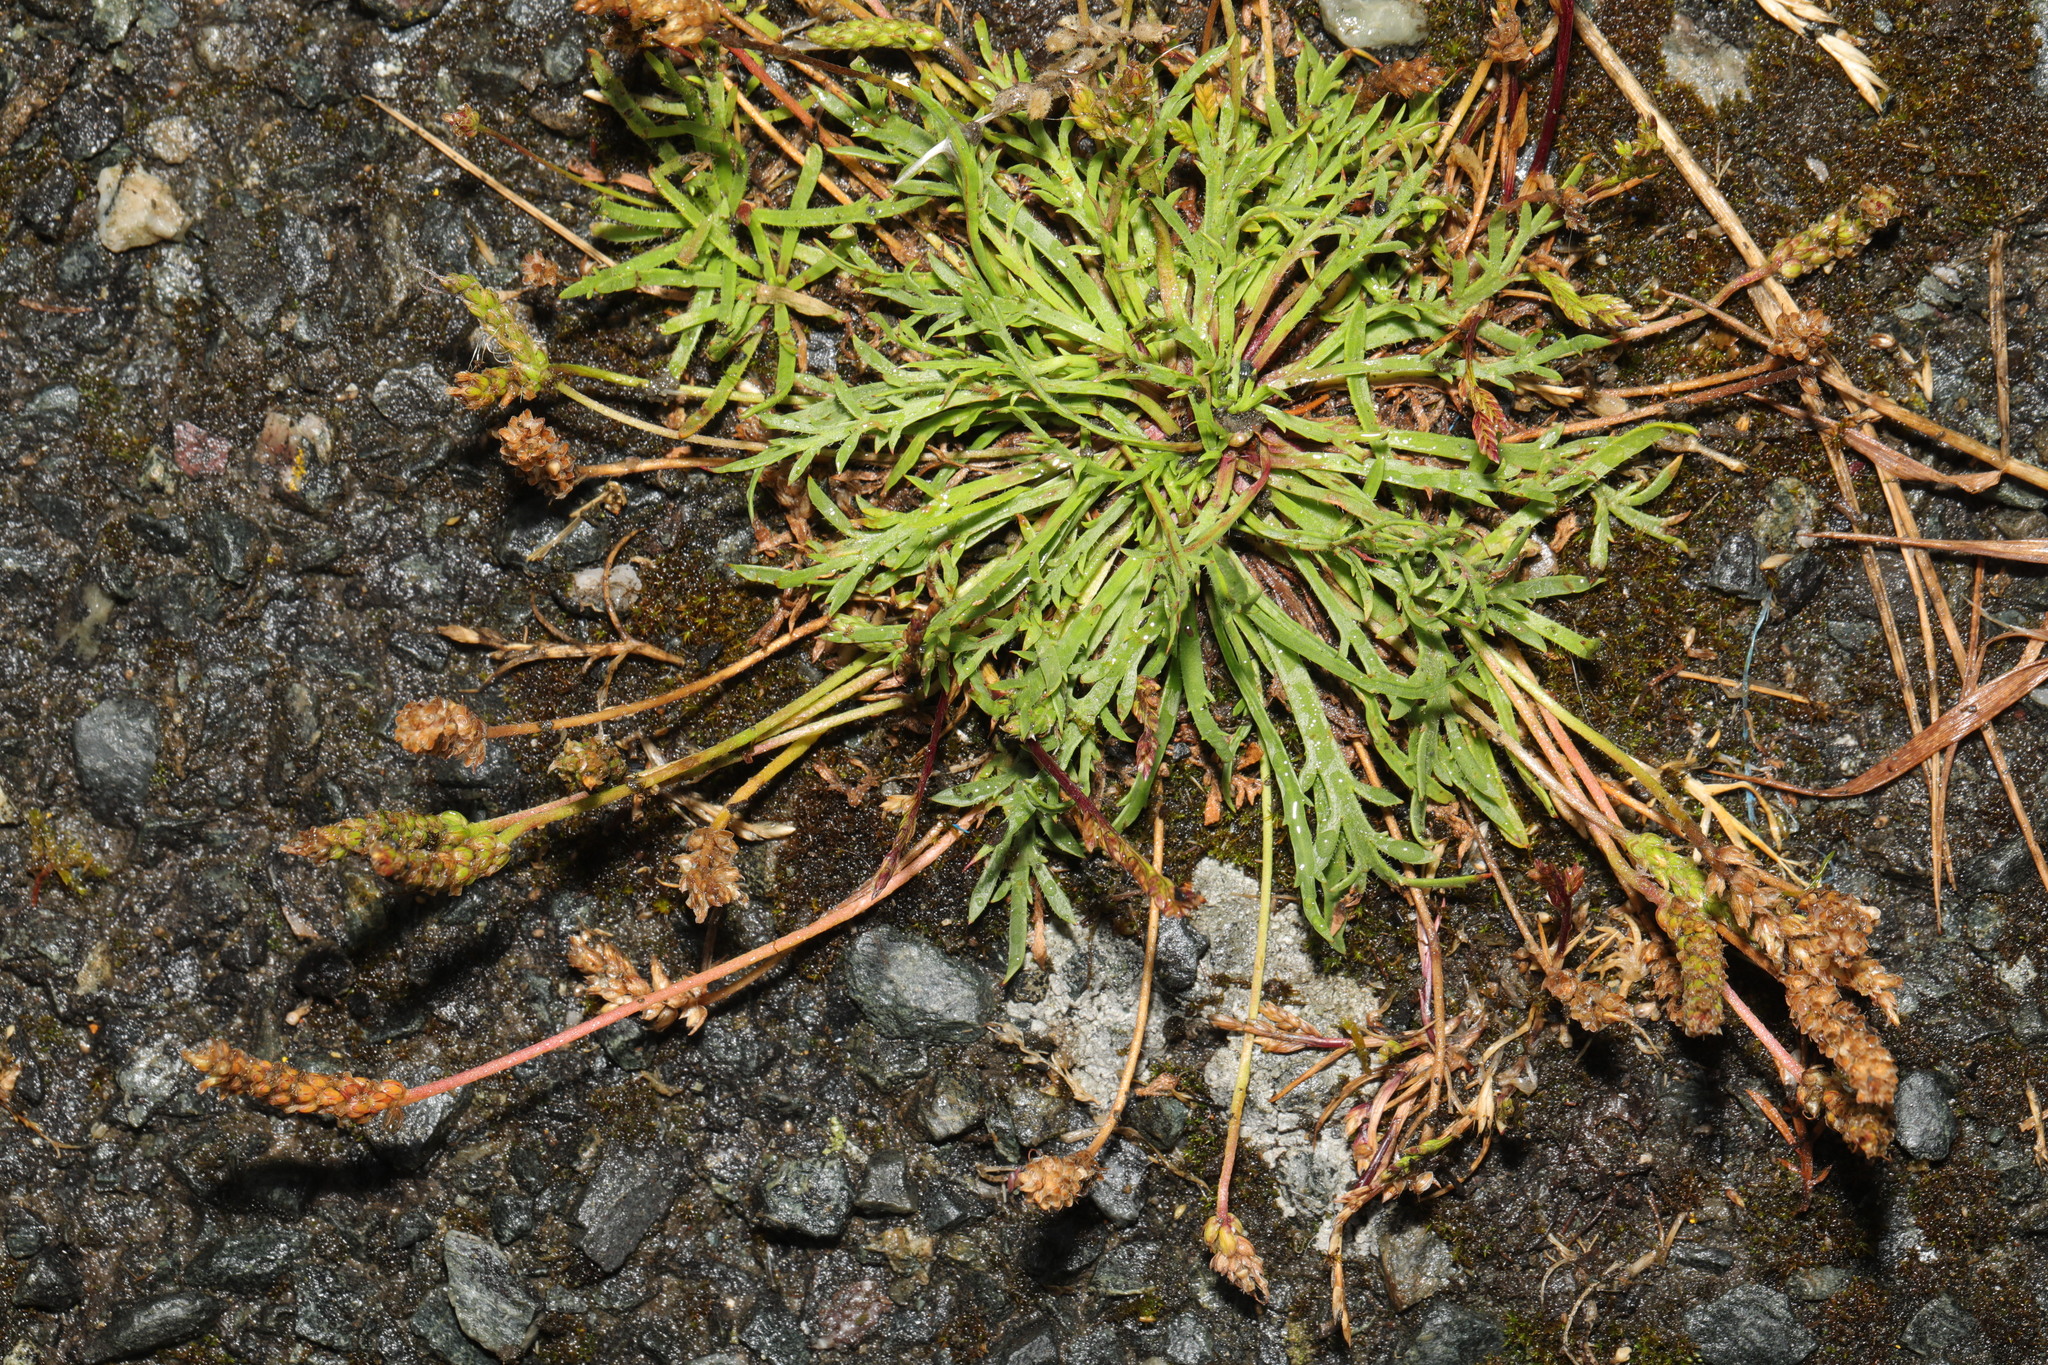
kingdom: Plantae
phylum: Tracheophyta
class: Magnoliopsida
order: Lamiales
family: Plantaginaceae
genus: Plantago
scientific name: Plantago coronopus
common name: Buck's-horn plantain
